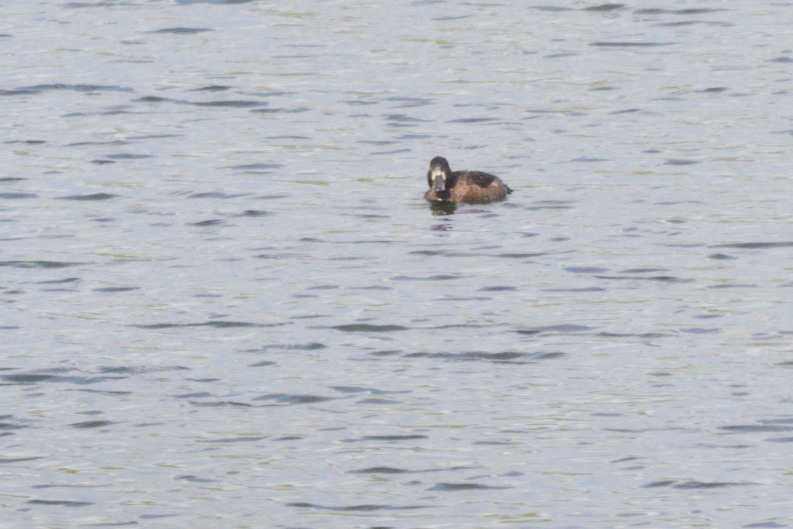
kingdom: Animalia
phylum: Chordata
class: Aves
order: Anseriformes
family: Anatidae
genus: Aythya
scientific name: Aythya fuligula
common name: Tufted duck
